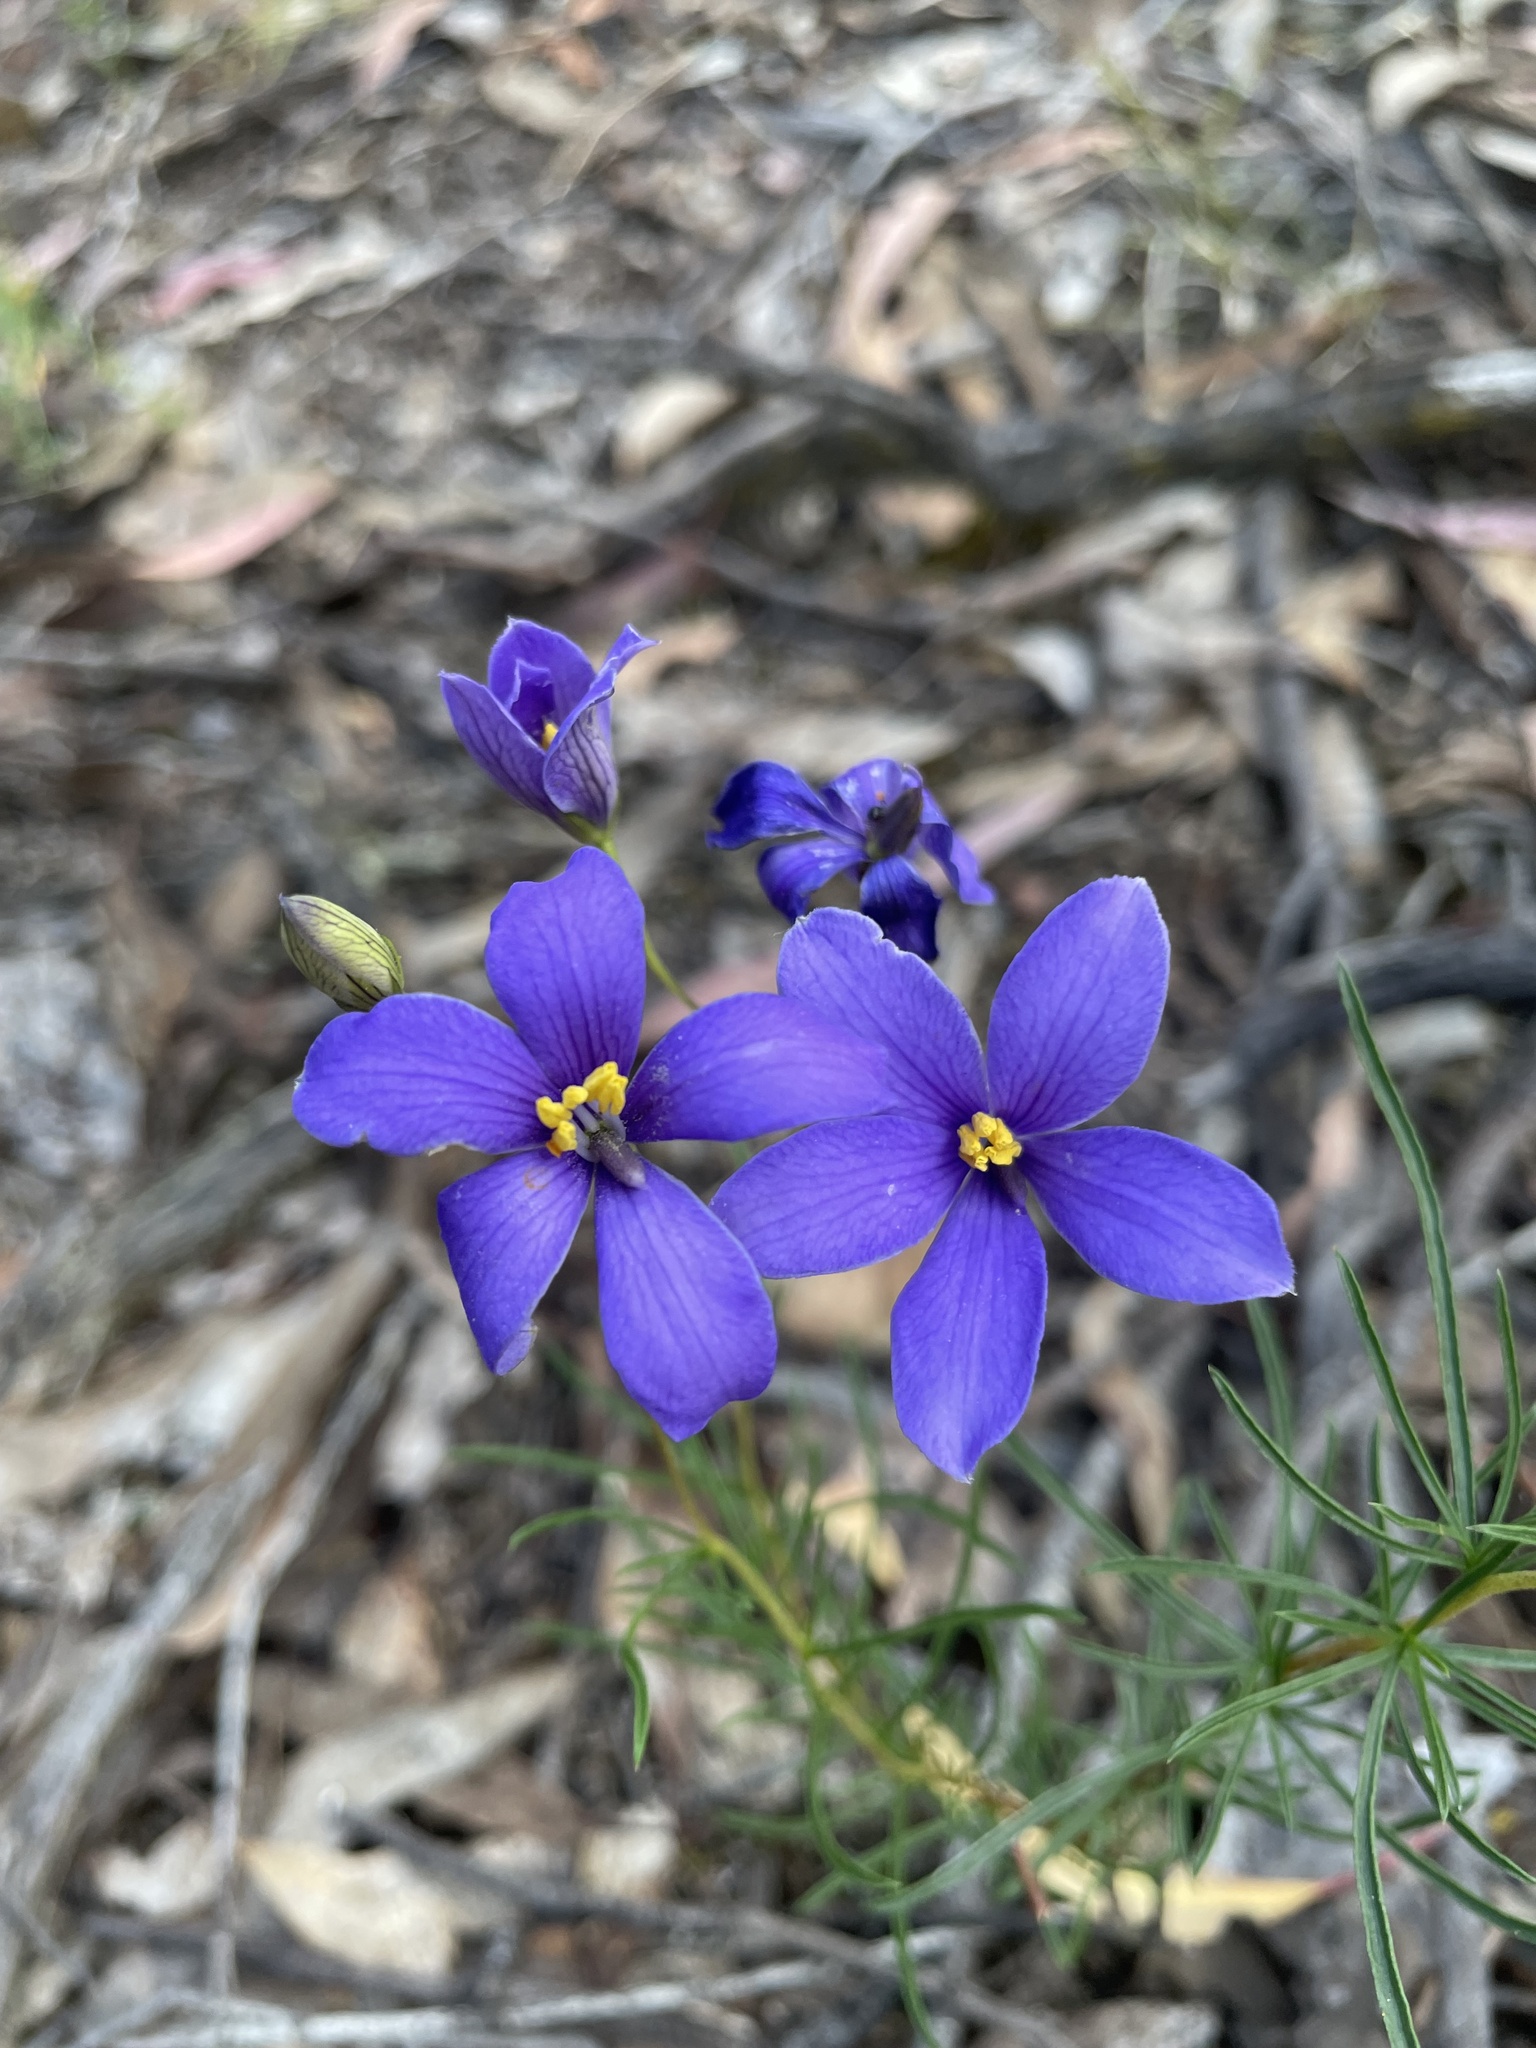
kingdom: Plantae
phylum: Tracheophyta
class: Magnoliopsida
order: Apiales
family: Pittosporaceae
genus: Cheiranthera
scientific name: Cheiranthera linearis
